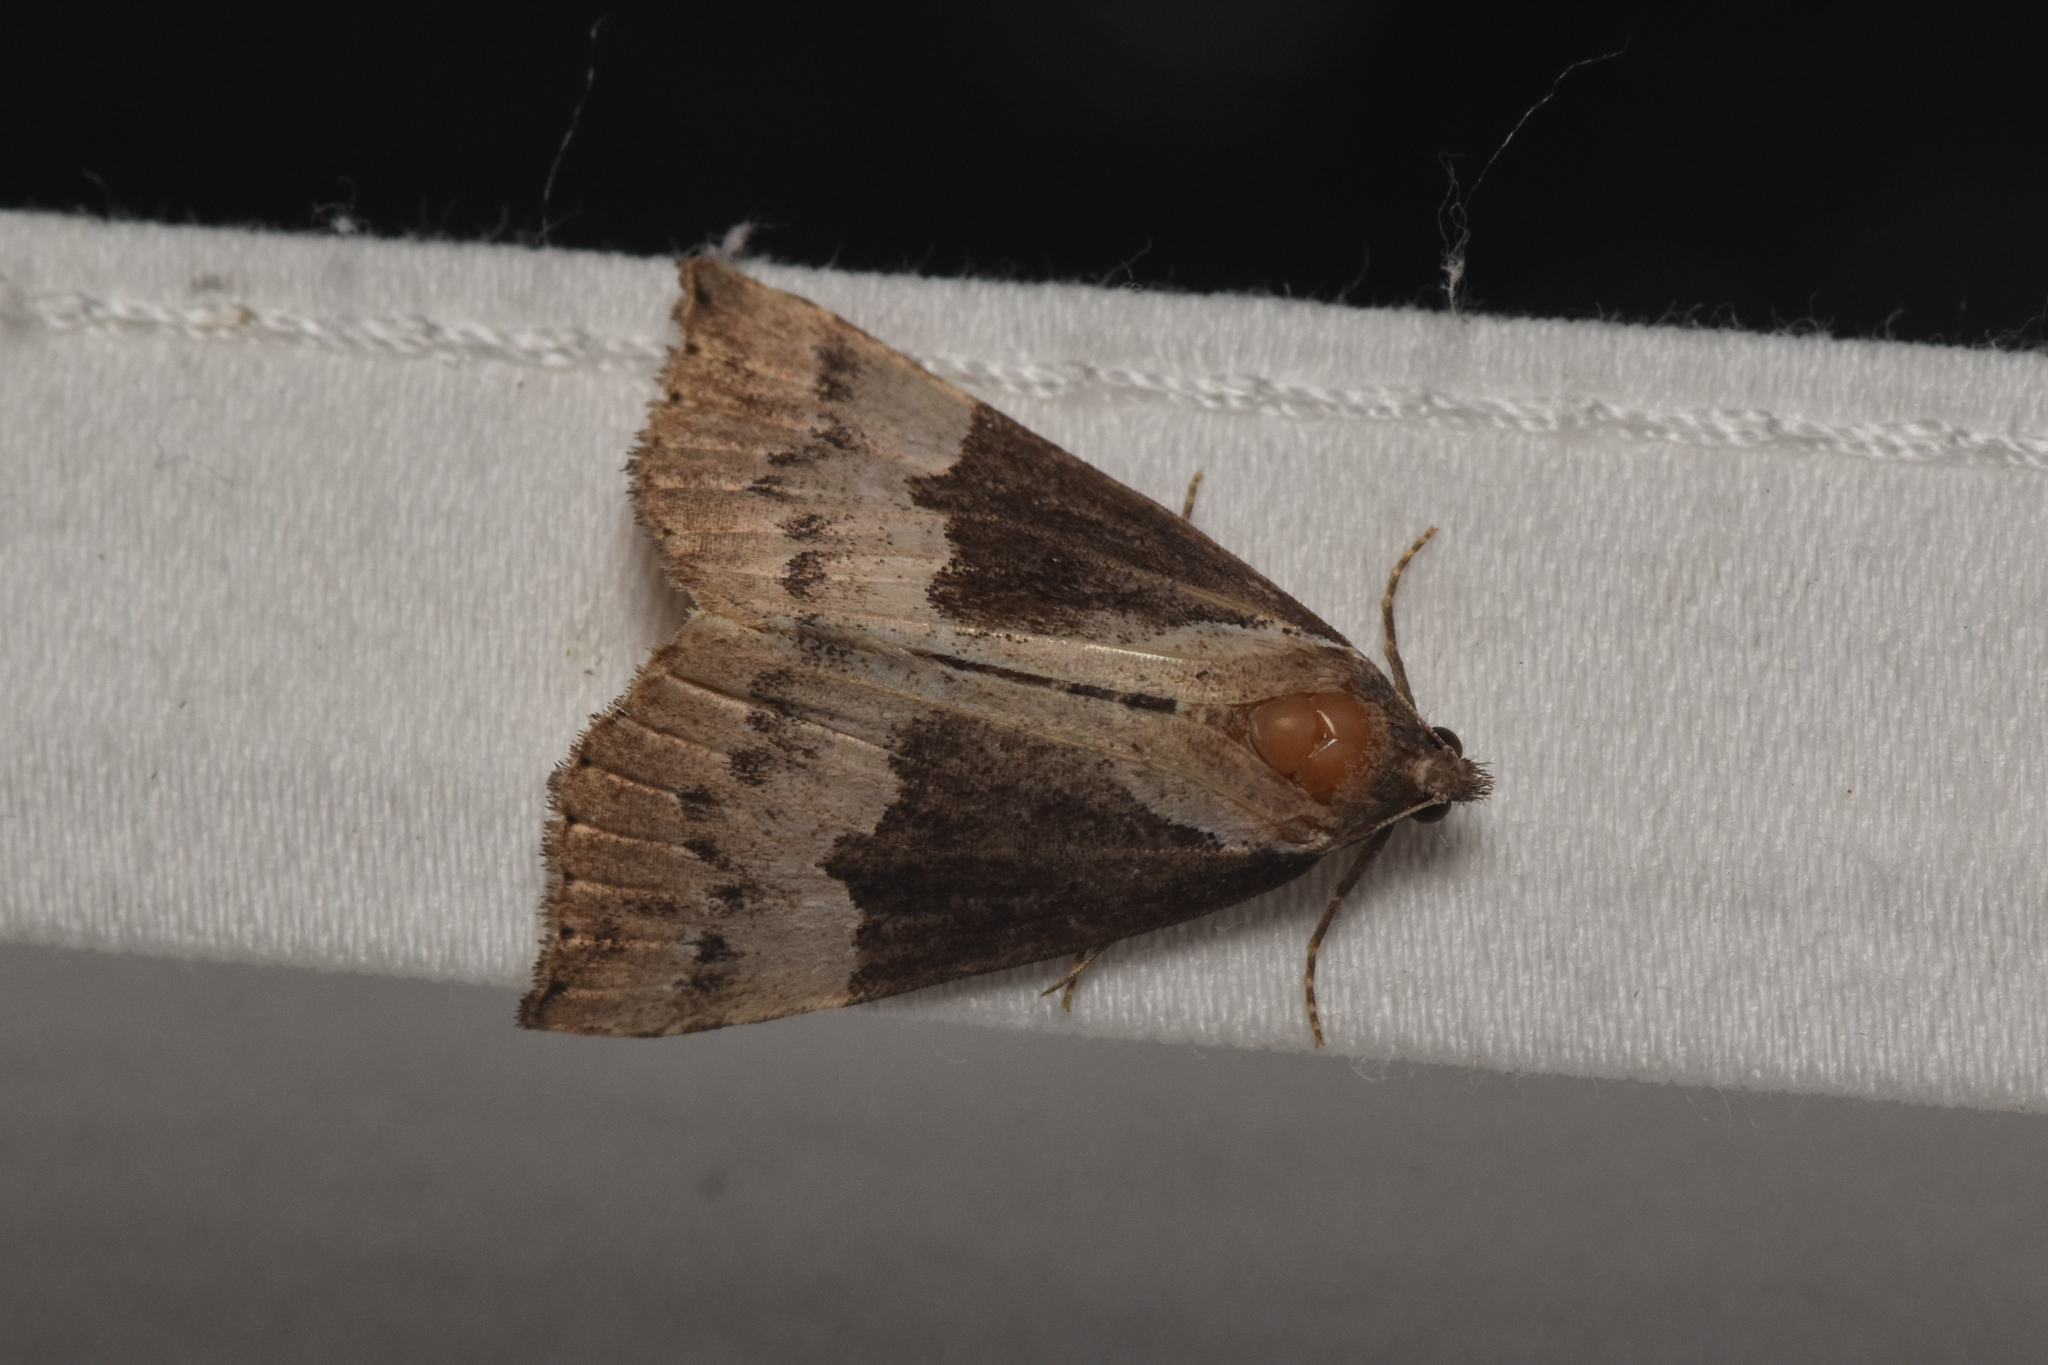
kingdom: Animalia
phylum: Arthropoda
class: Insecta
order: Lepidoptera
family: Erebidae
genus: Hypena
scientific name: Hypena bijugalis
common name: Dimorphic bomolocha moth
